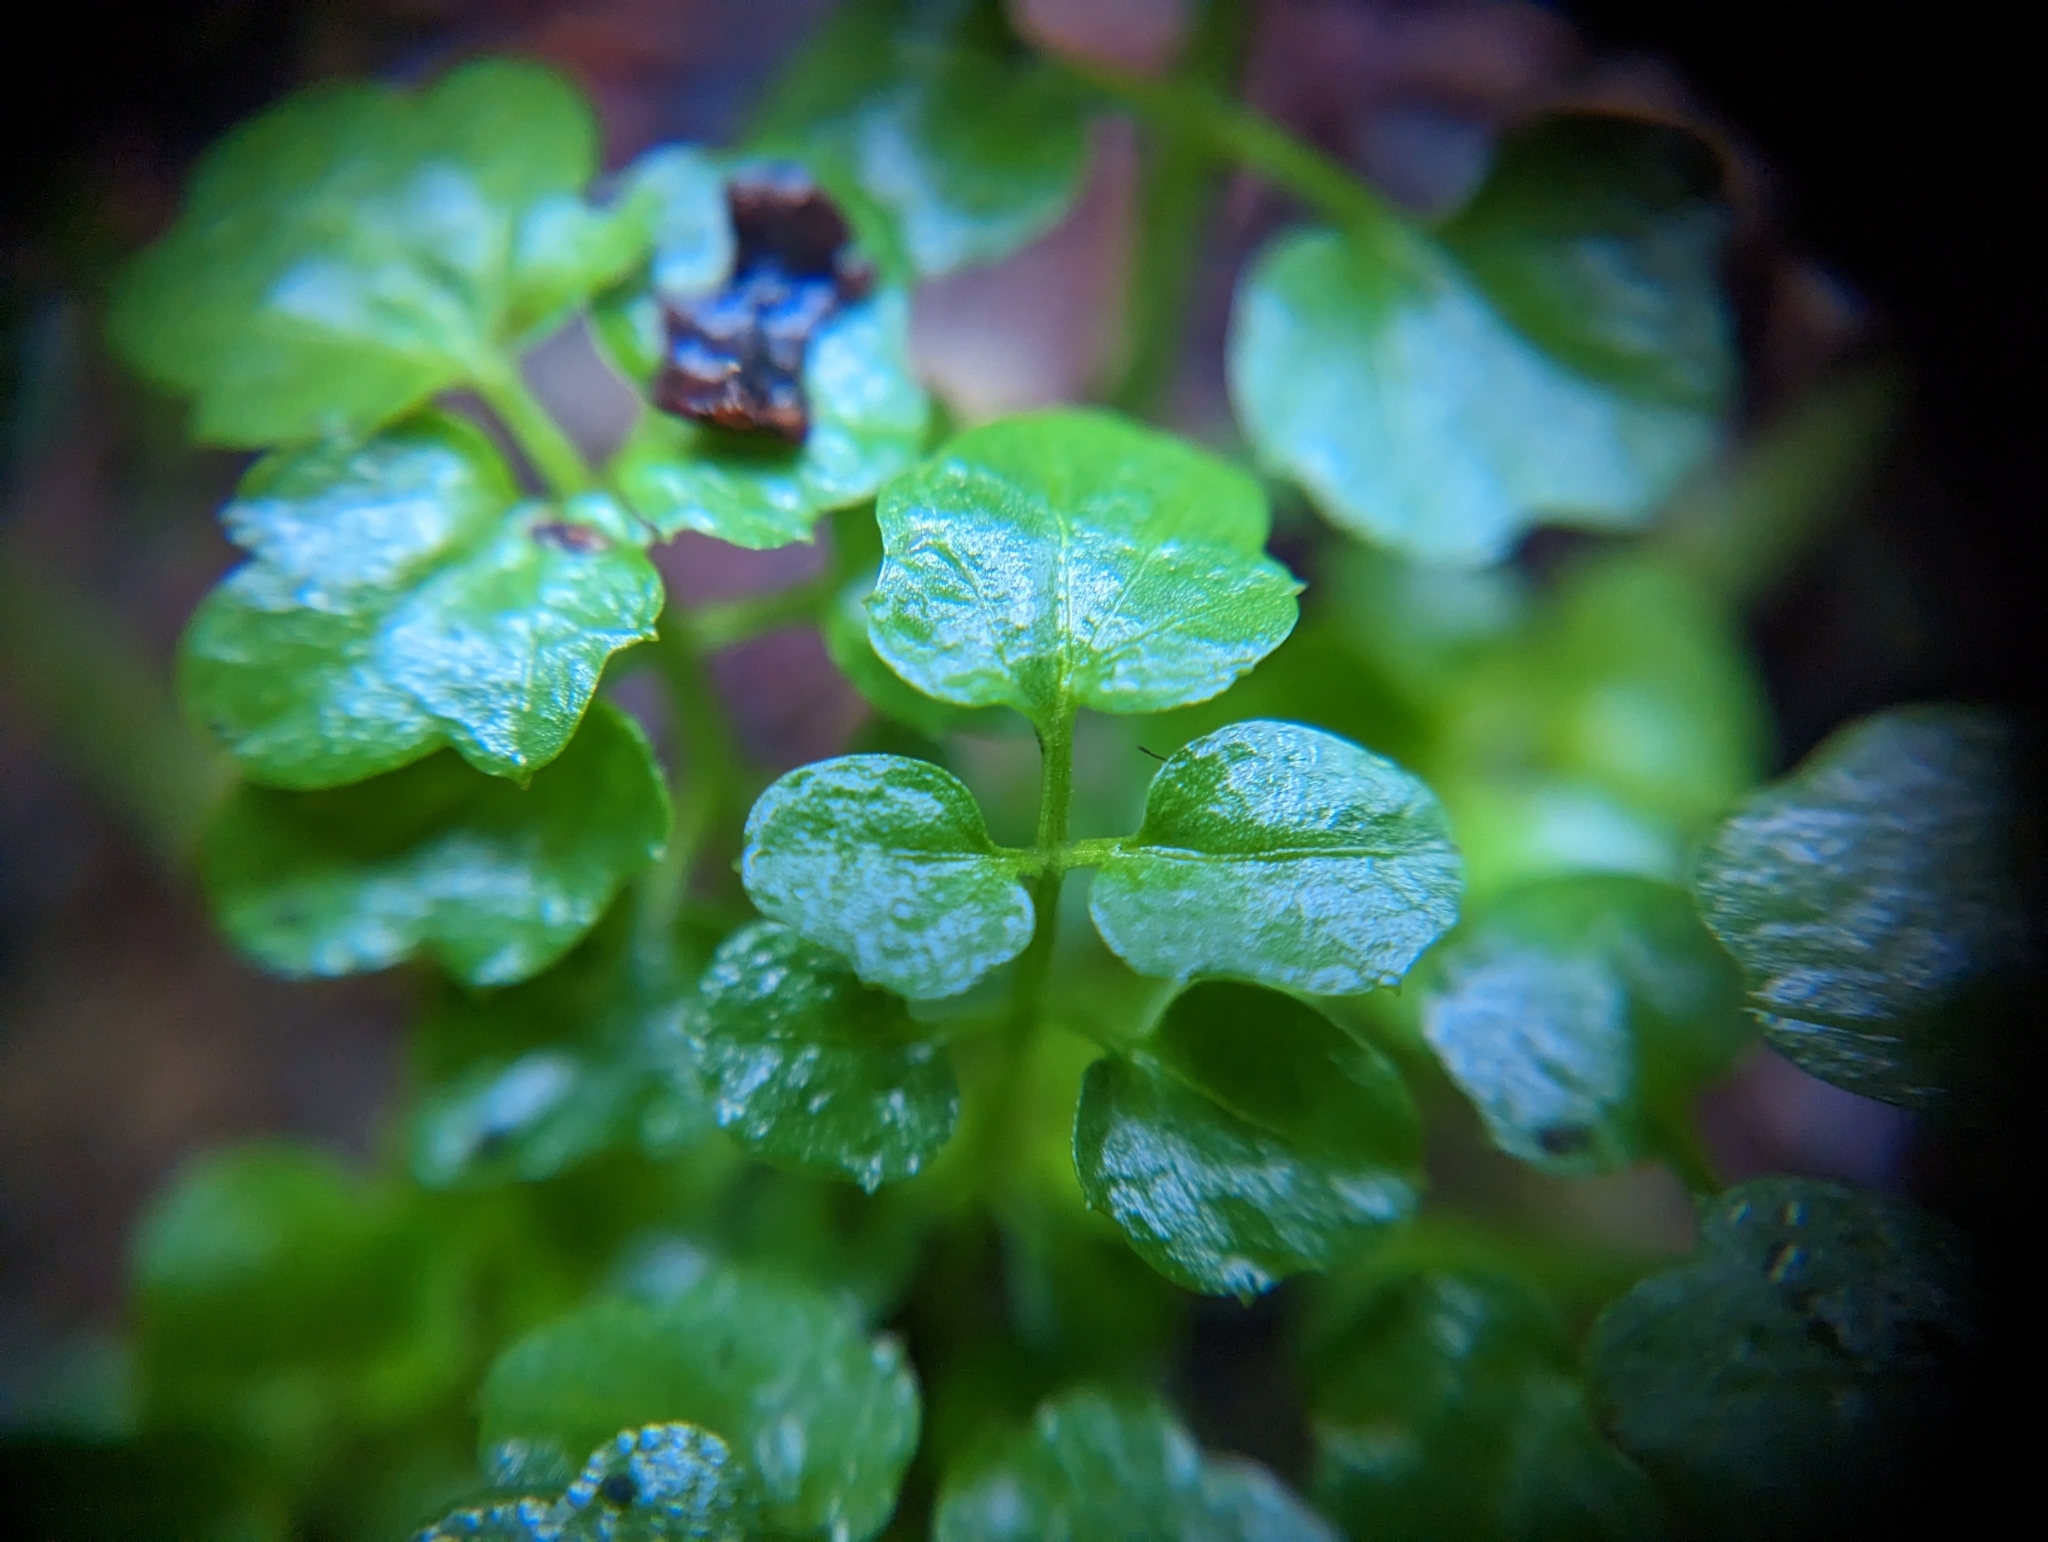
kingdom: Plantae
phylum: Tracheophyta
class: Magnoliopsida
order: Brassicales
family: Brassicaceae
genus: Cardamine
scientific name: Cardamine flexuosa
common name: Woodland bittercress
